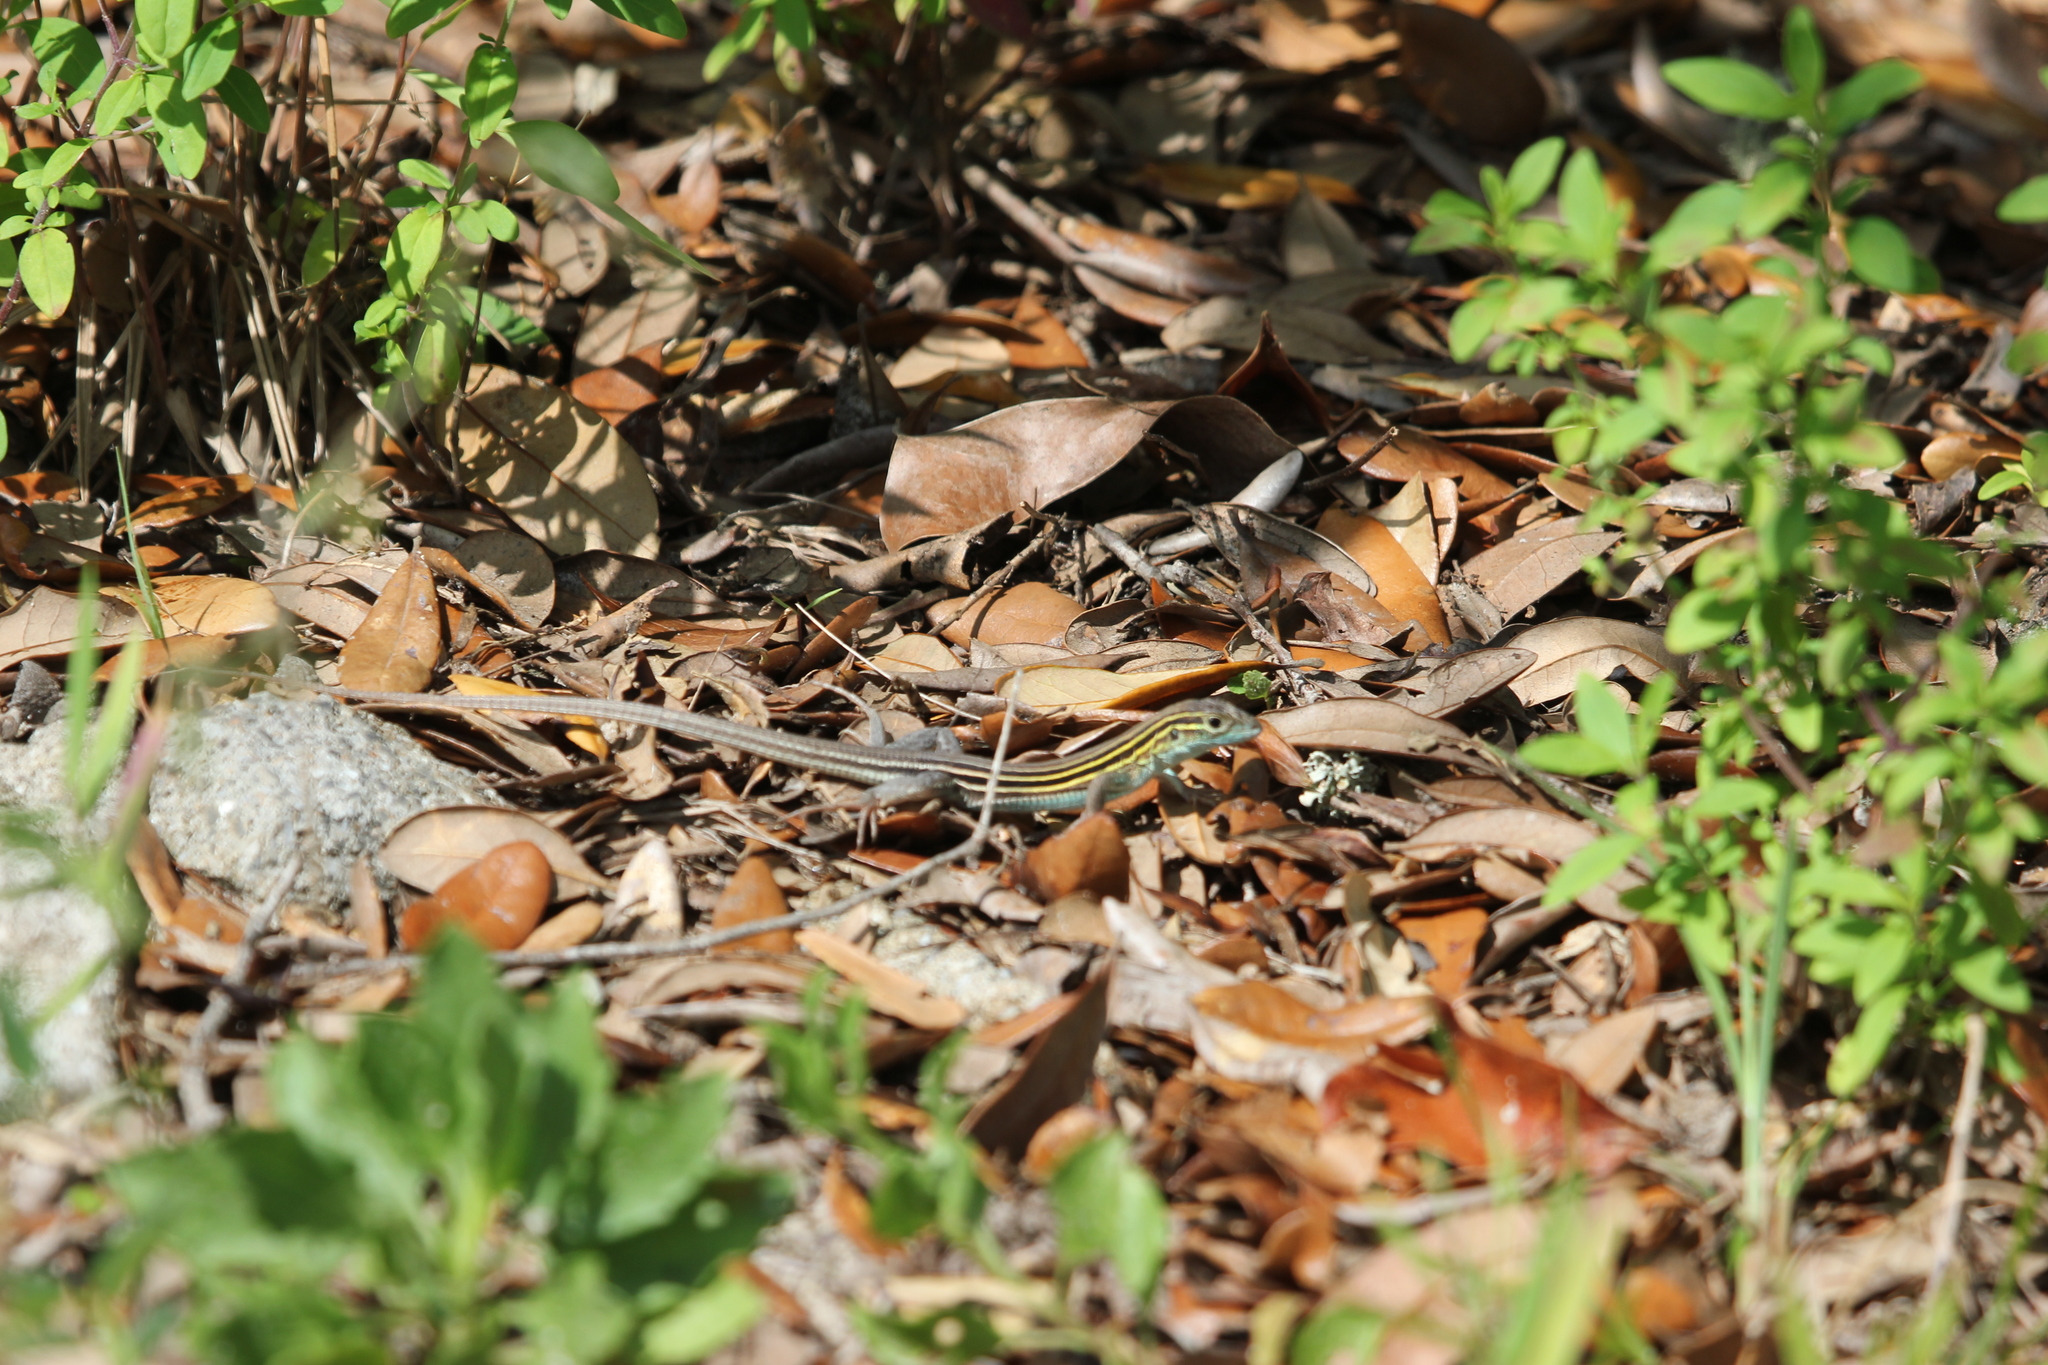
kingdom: Animalia
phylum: Chordata
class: Squamata
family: Teiidae
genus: Aspidoscelis
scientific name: Aspidoscelis sexlineatus
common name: Six-lined racerunner
